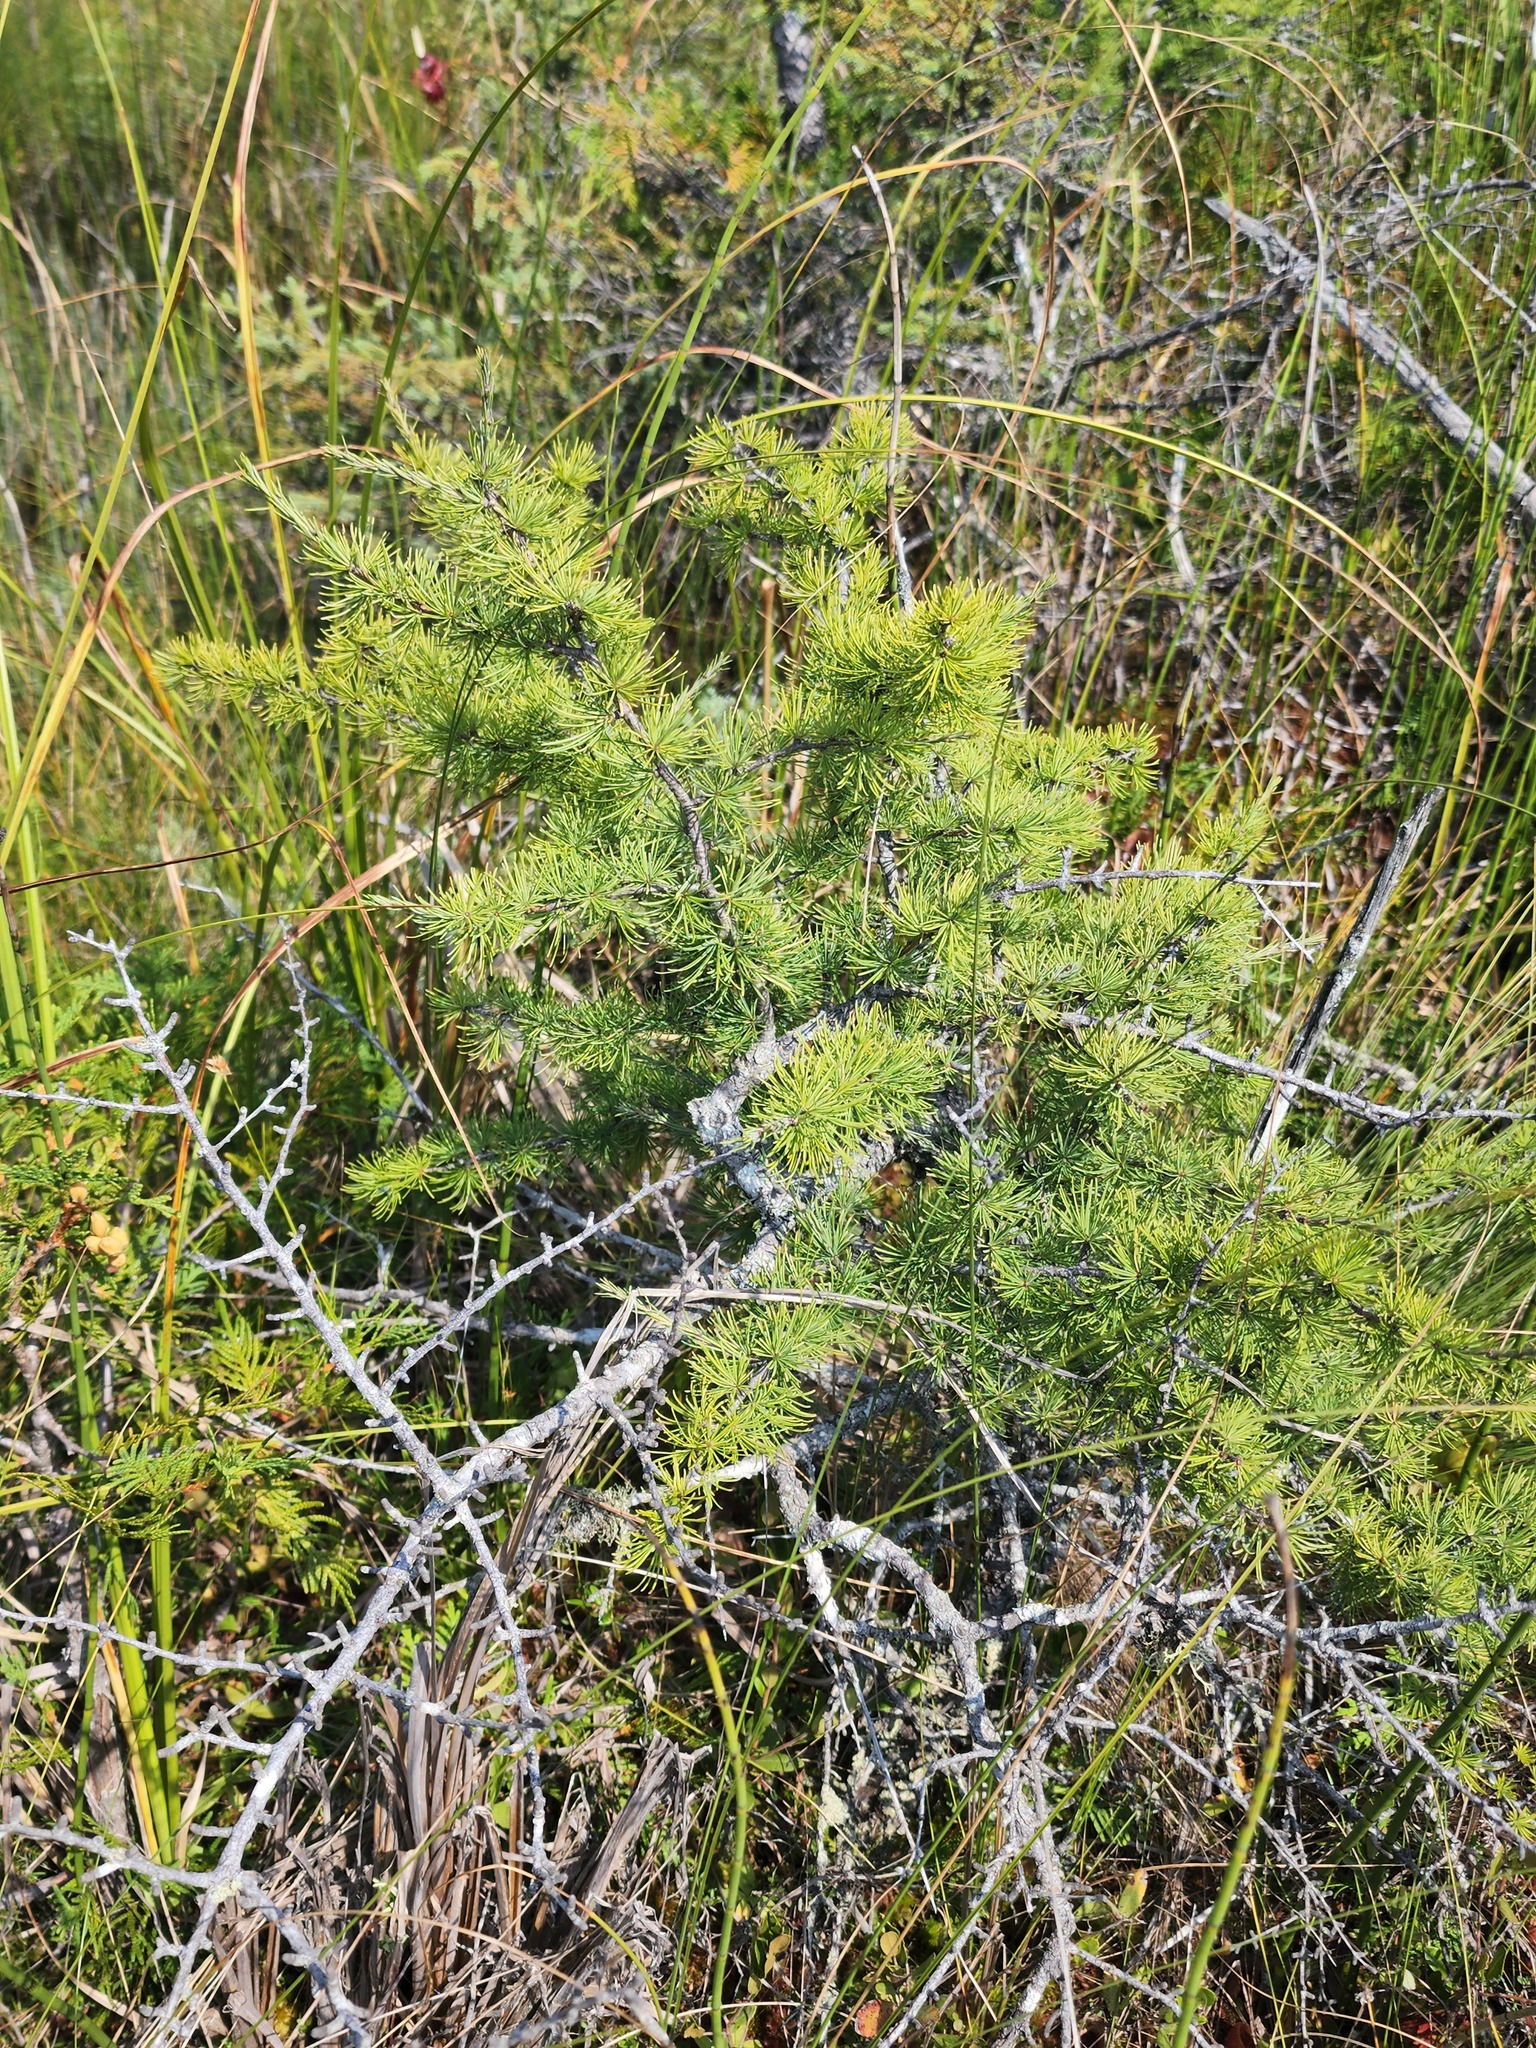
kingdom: Plantae
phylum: Tracheophyta
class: Pinopsida
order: Pinales
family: Pinaceae
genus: Larix
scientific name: Larix laricina
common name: American larch
